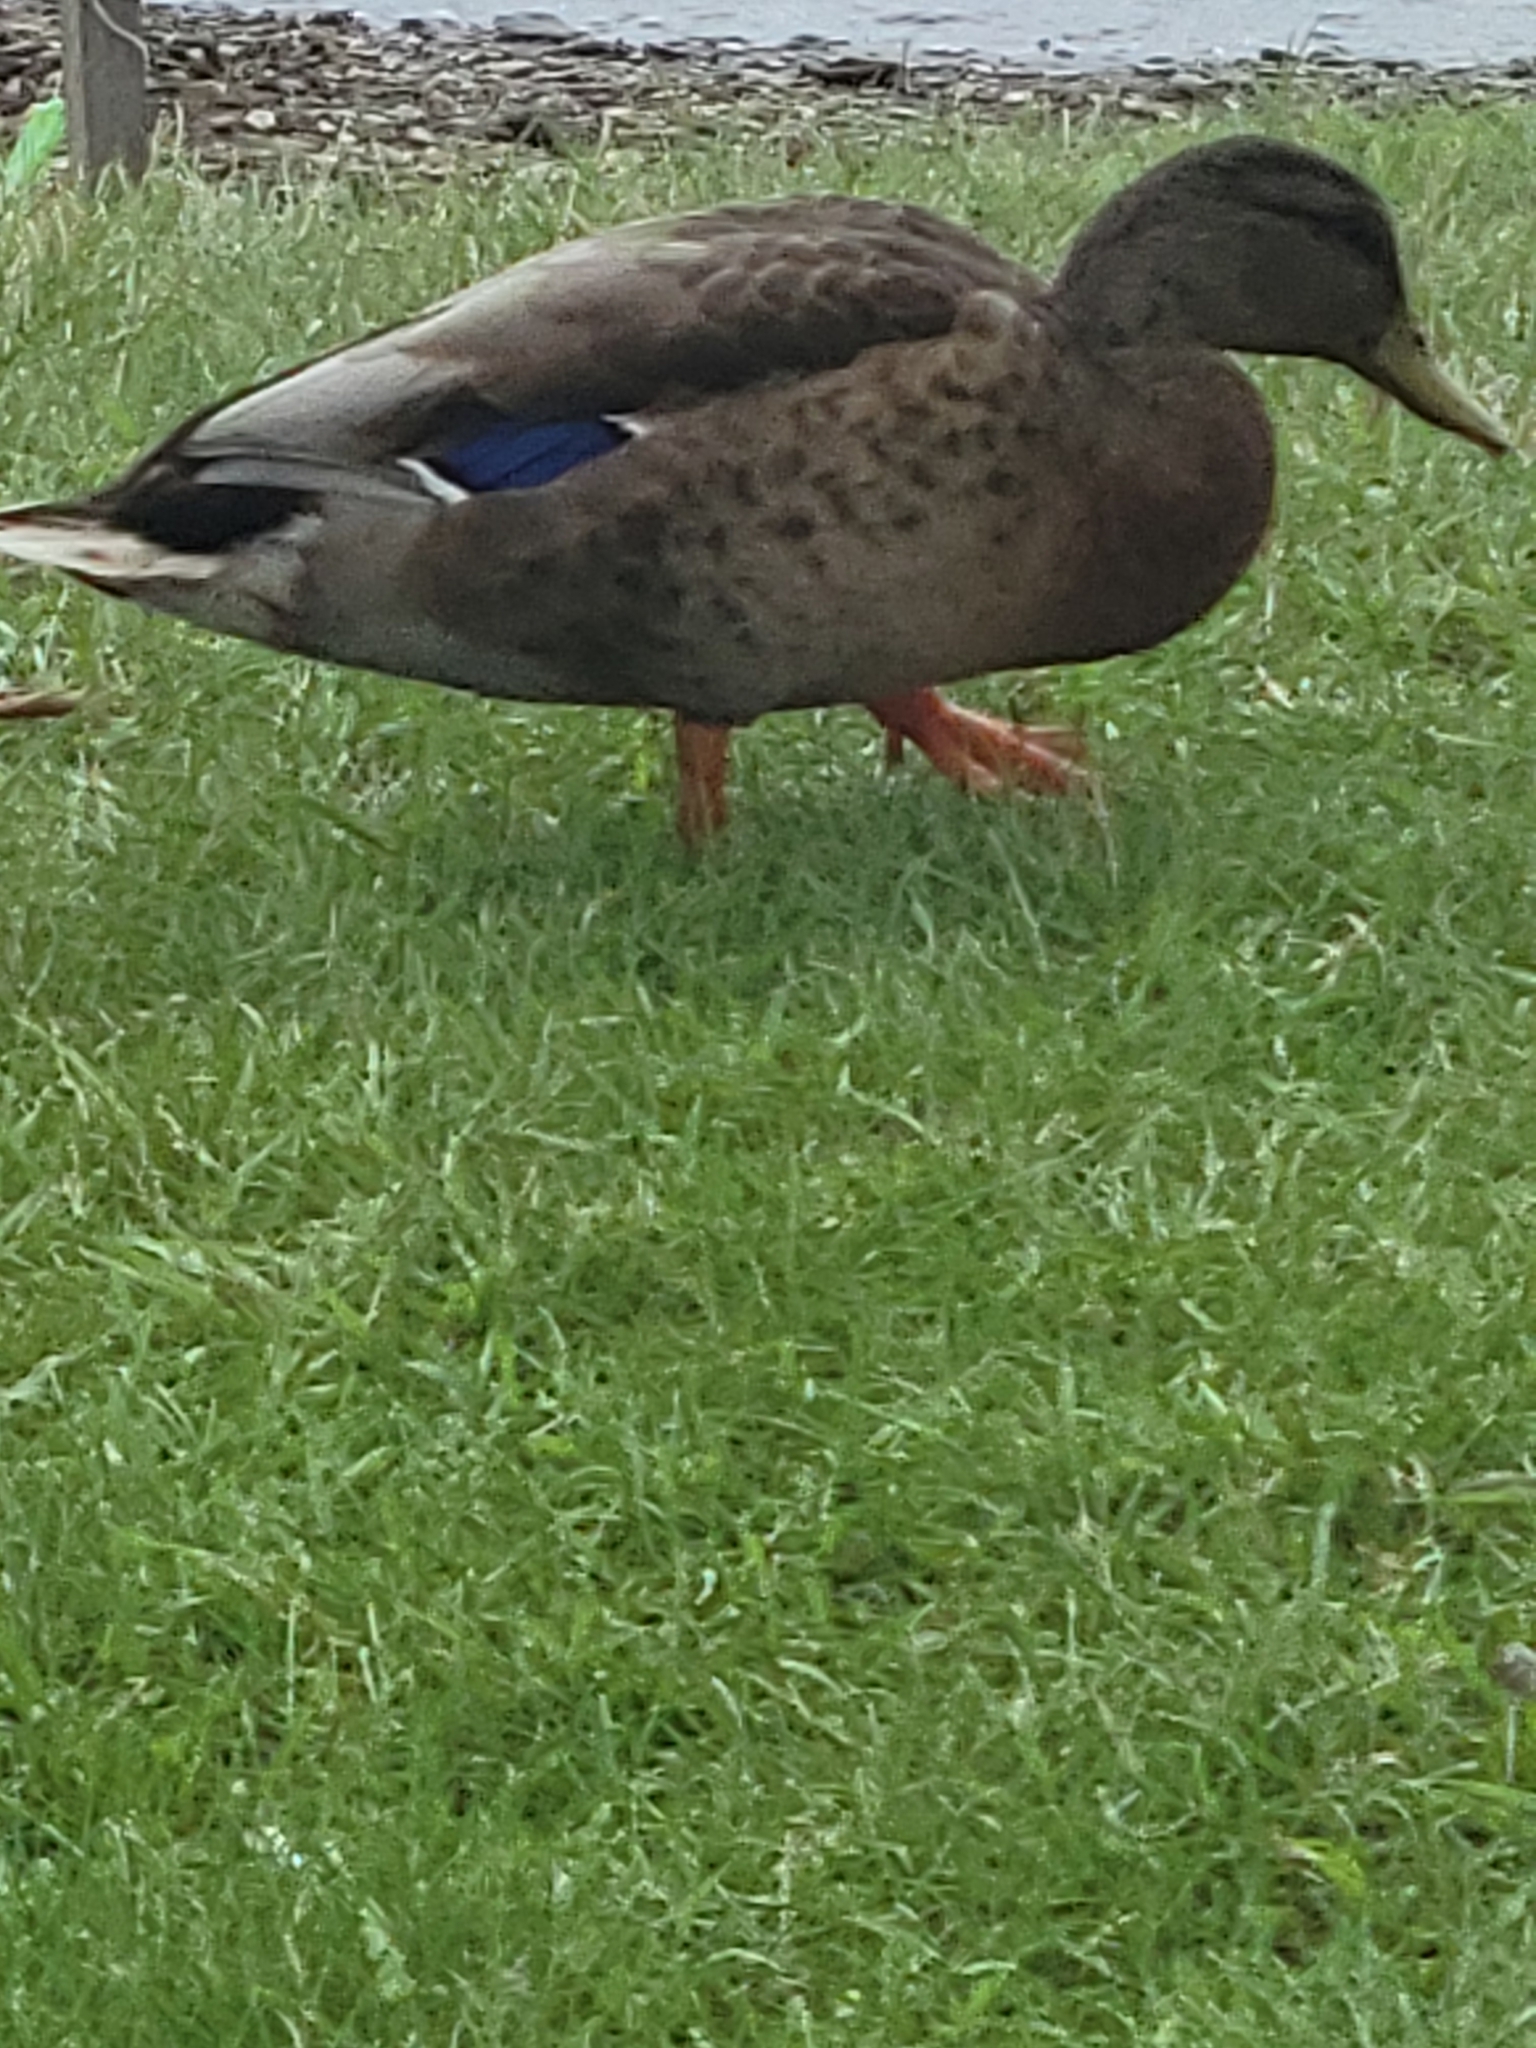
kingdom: Animalia
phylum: Chordata
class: Aves
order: Anseriformes
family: Anatidae
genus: Anas
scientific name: Anas platyrhynchos
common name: Mallard
